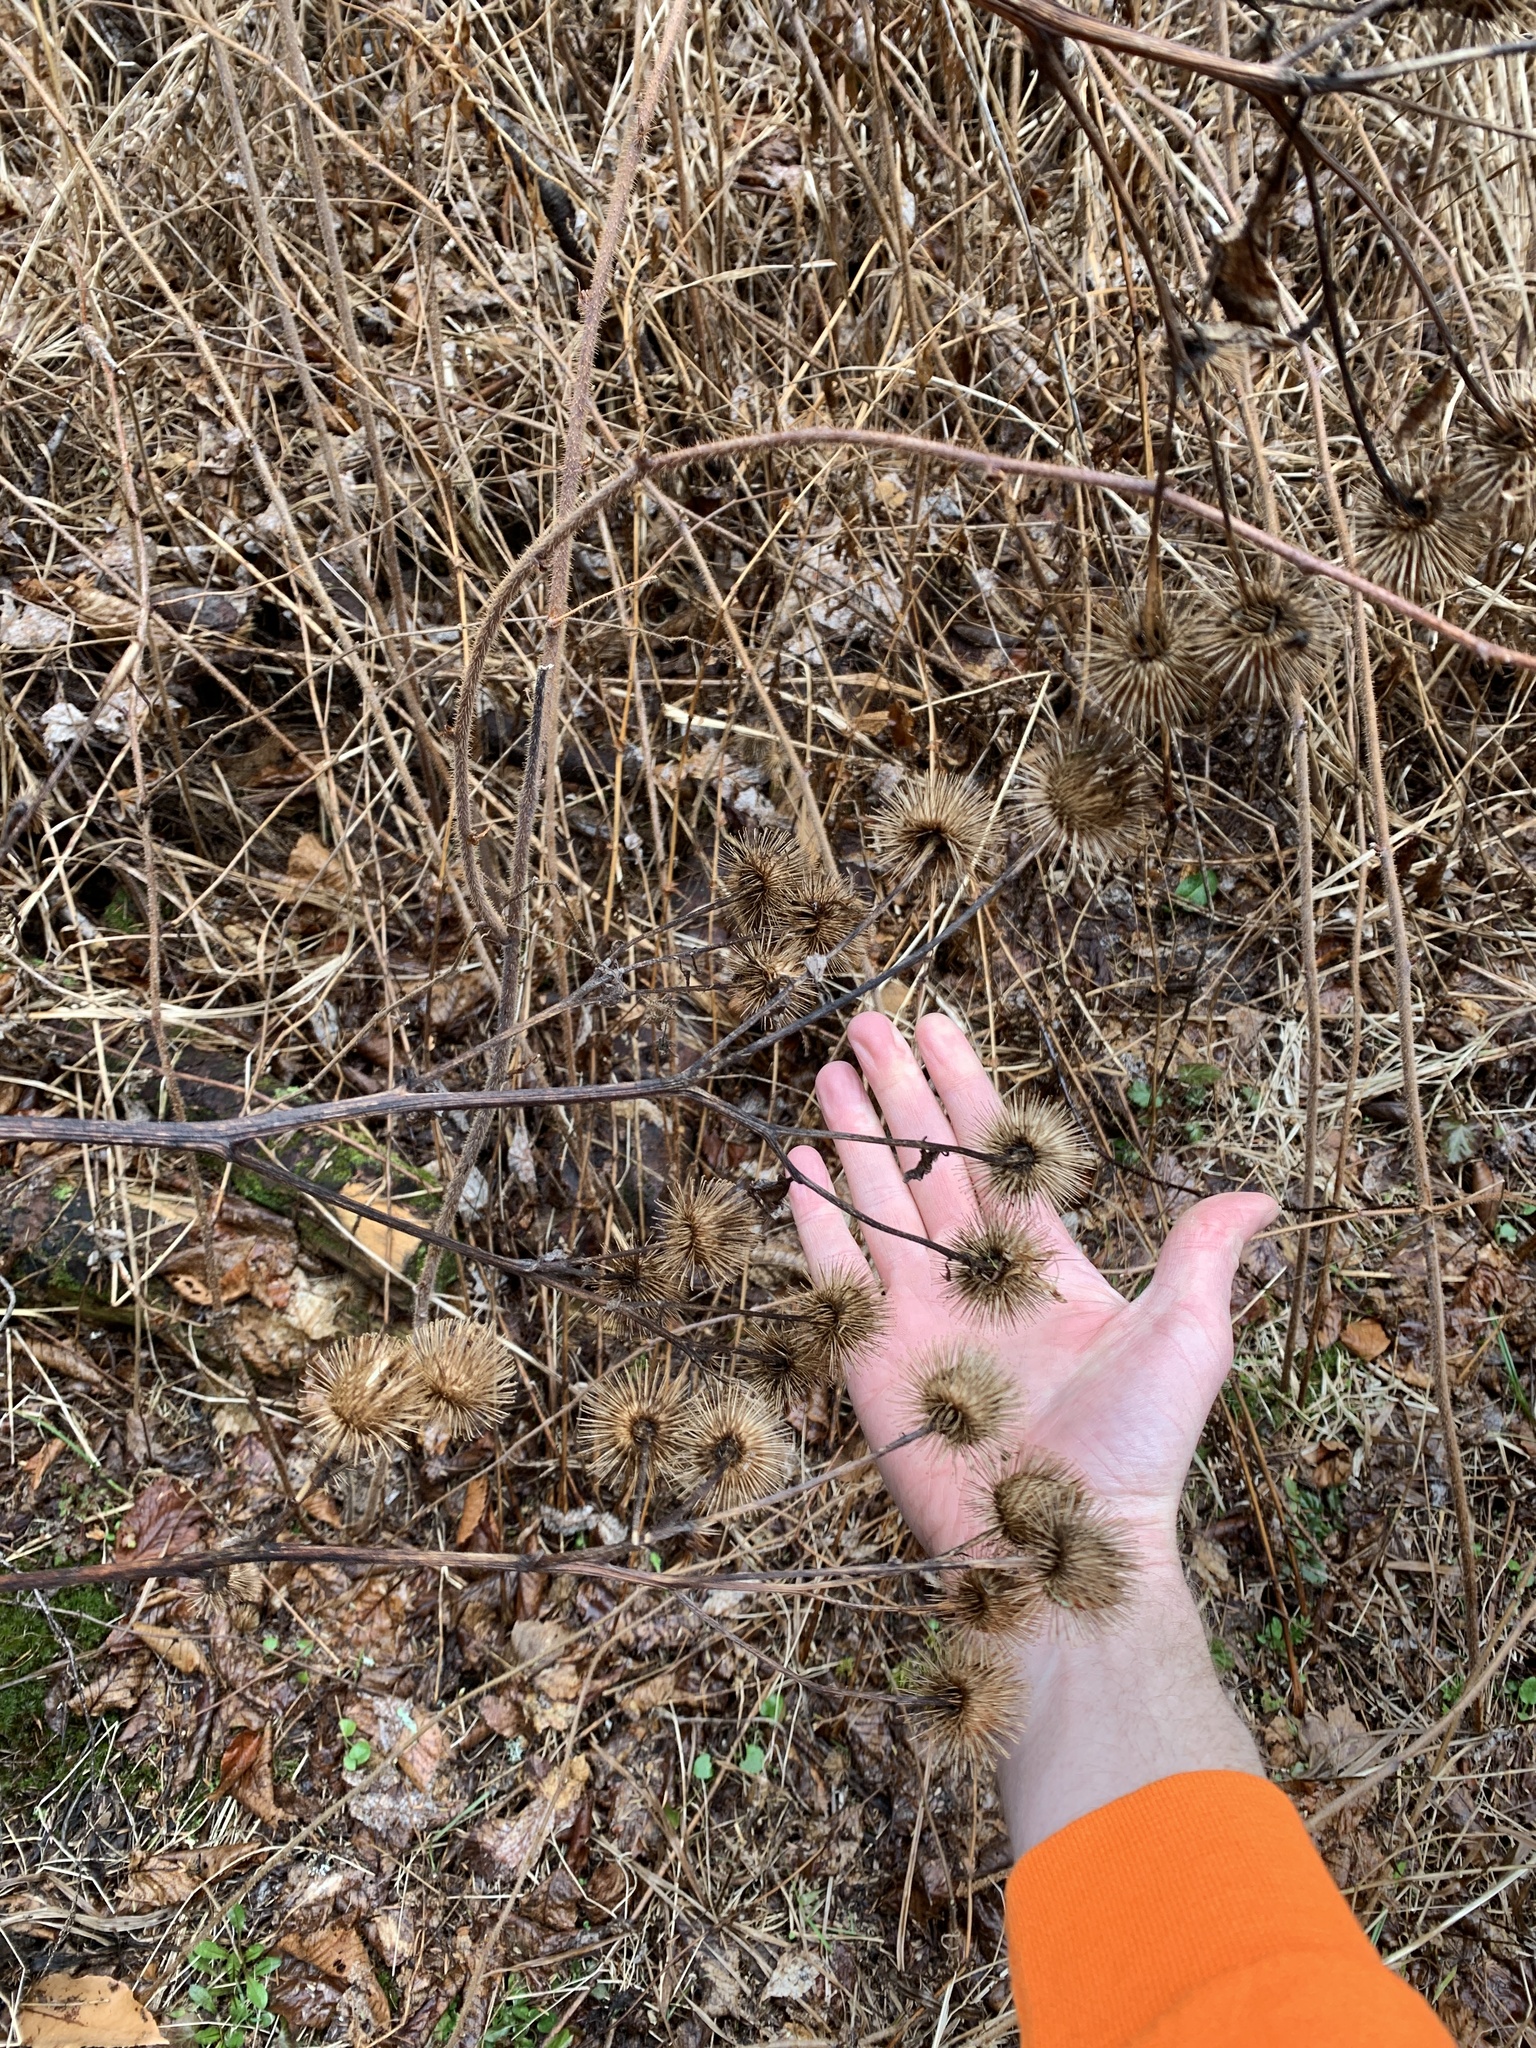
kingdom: Plantae
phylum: Tracheophyta
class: Magnoliopsida
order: Asterales
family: Asteraceae
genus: Arctium
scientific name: Arctium lappa
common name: Greater burdock
